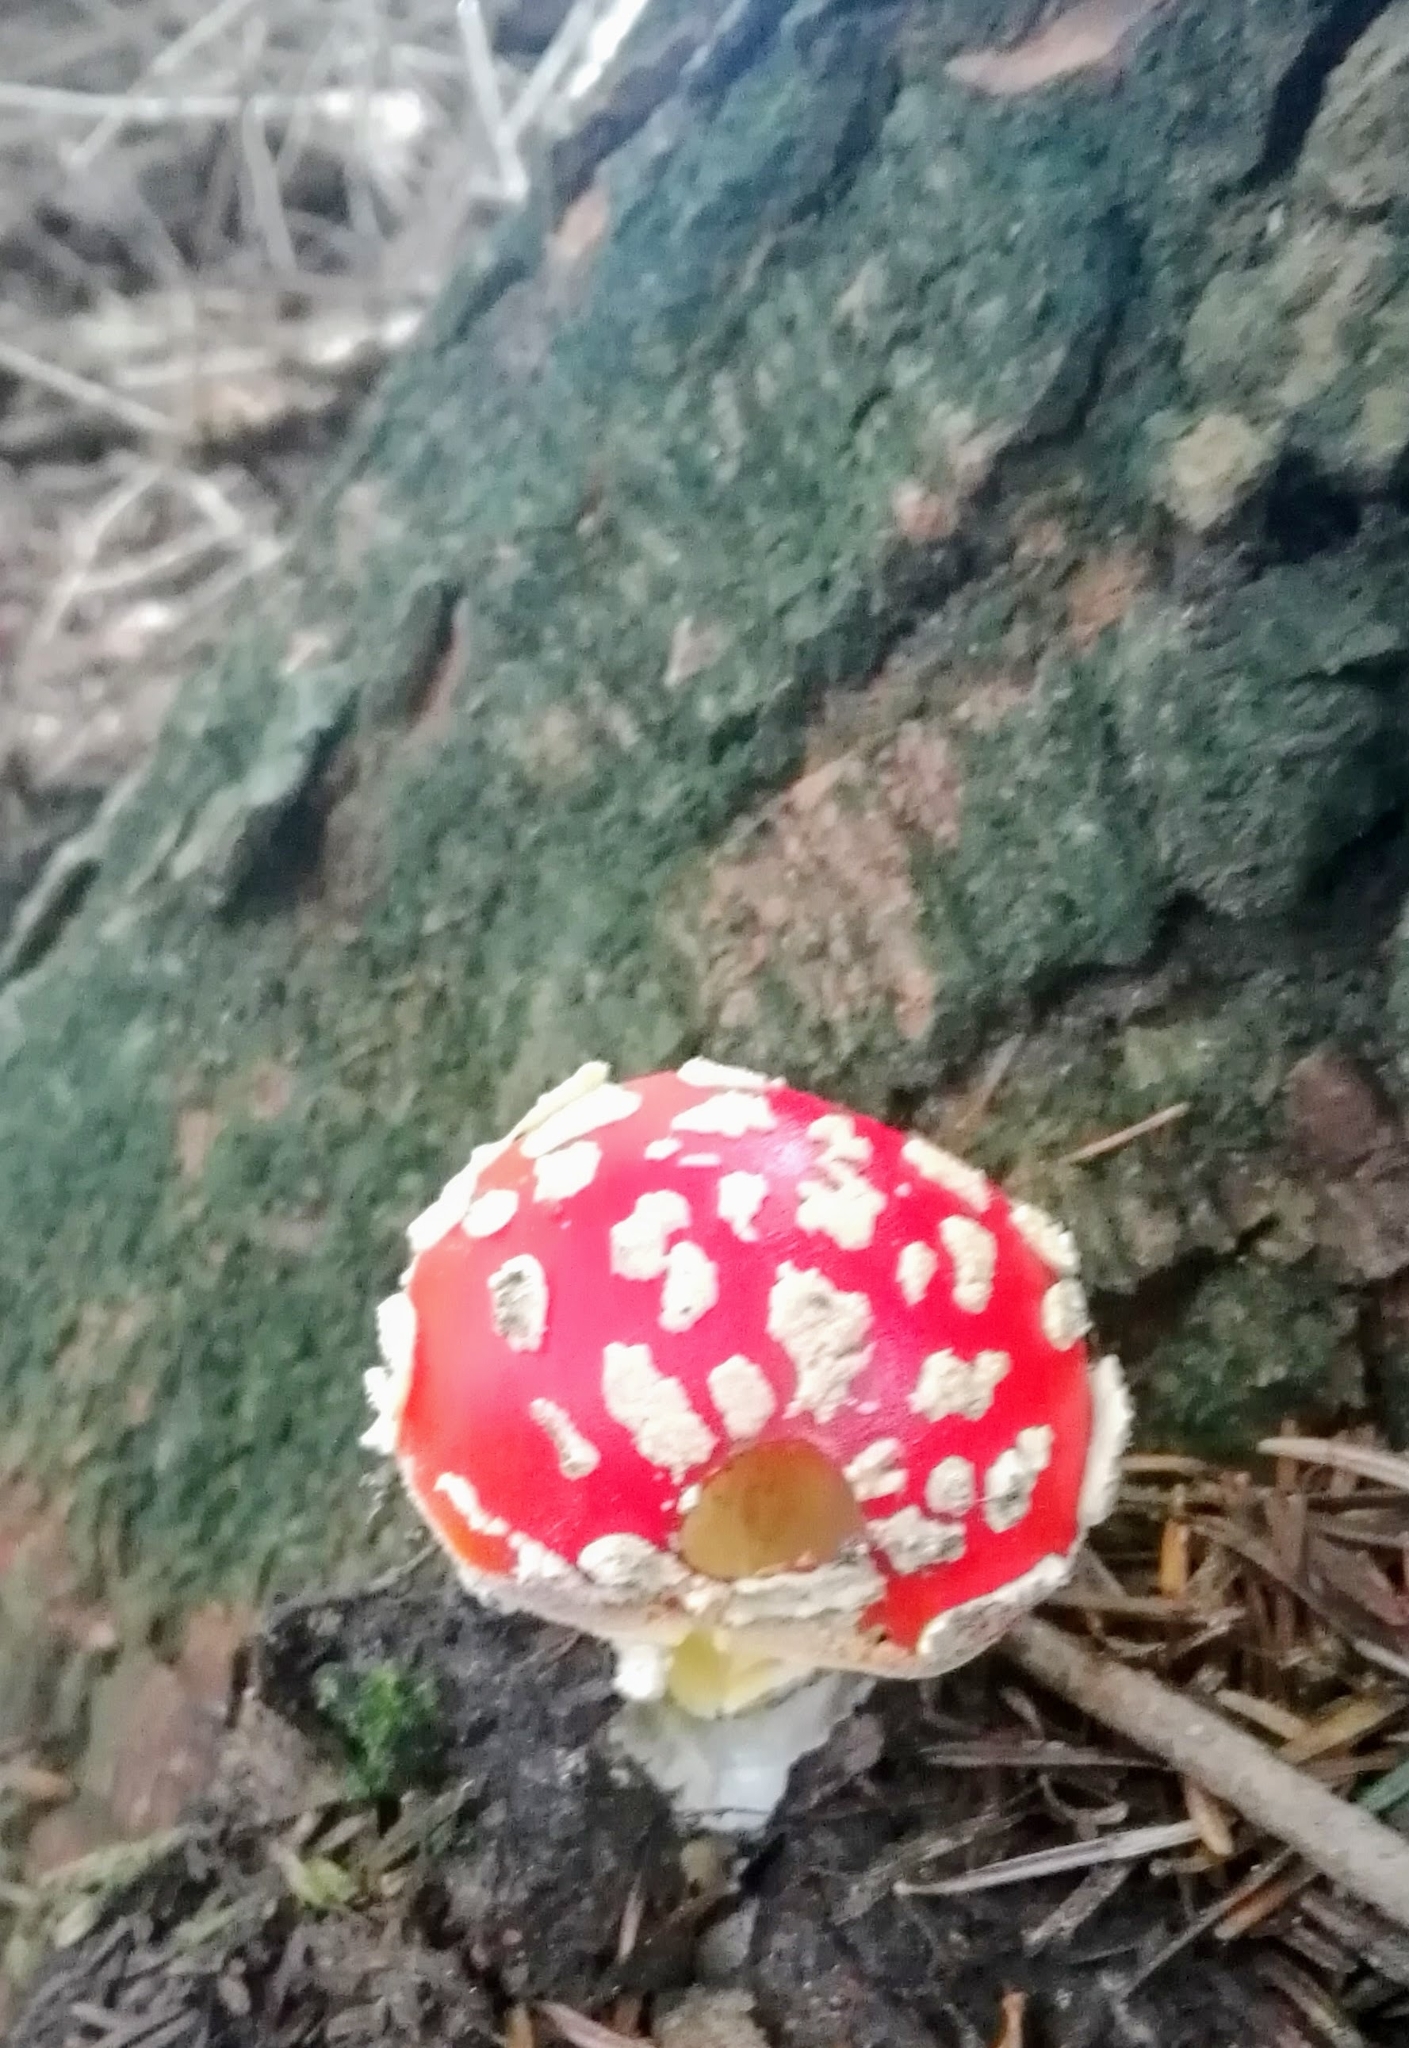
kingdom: Fungi
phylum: Basidiomycota
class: Agaricomycetes
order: Agaricales
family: Amanitaceae
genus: Amanita
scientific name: Amanita muscaria
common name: Fly agaric
